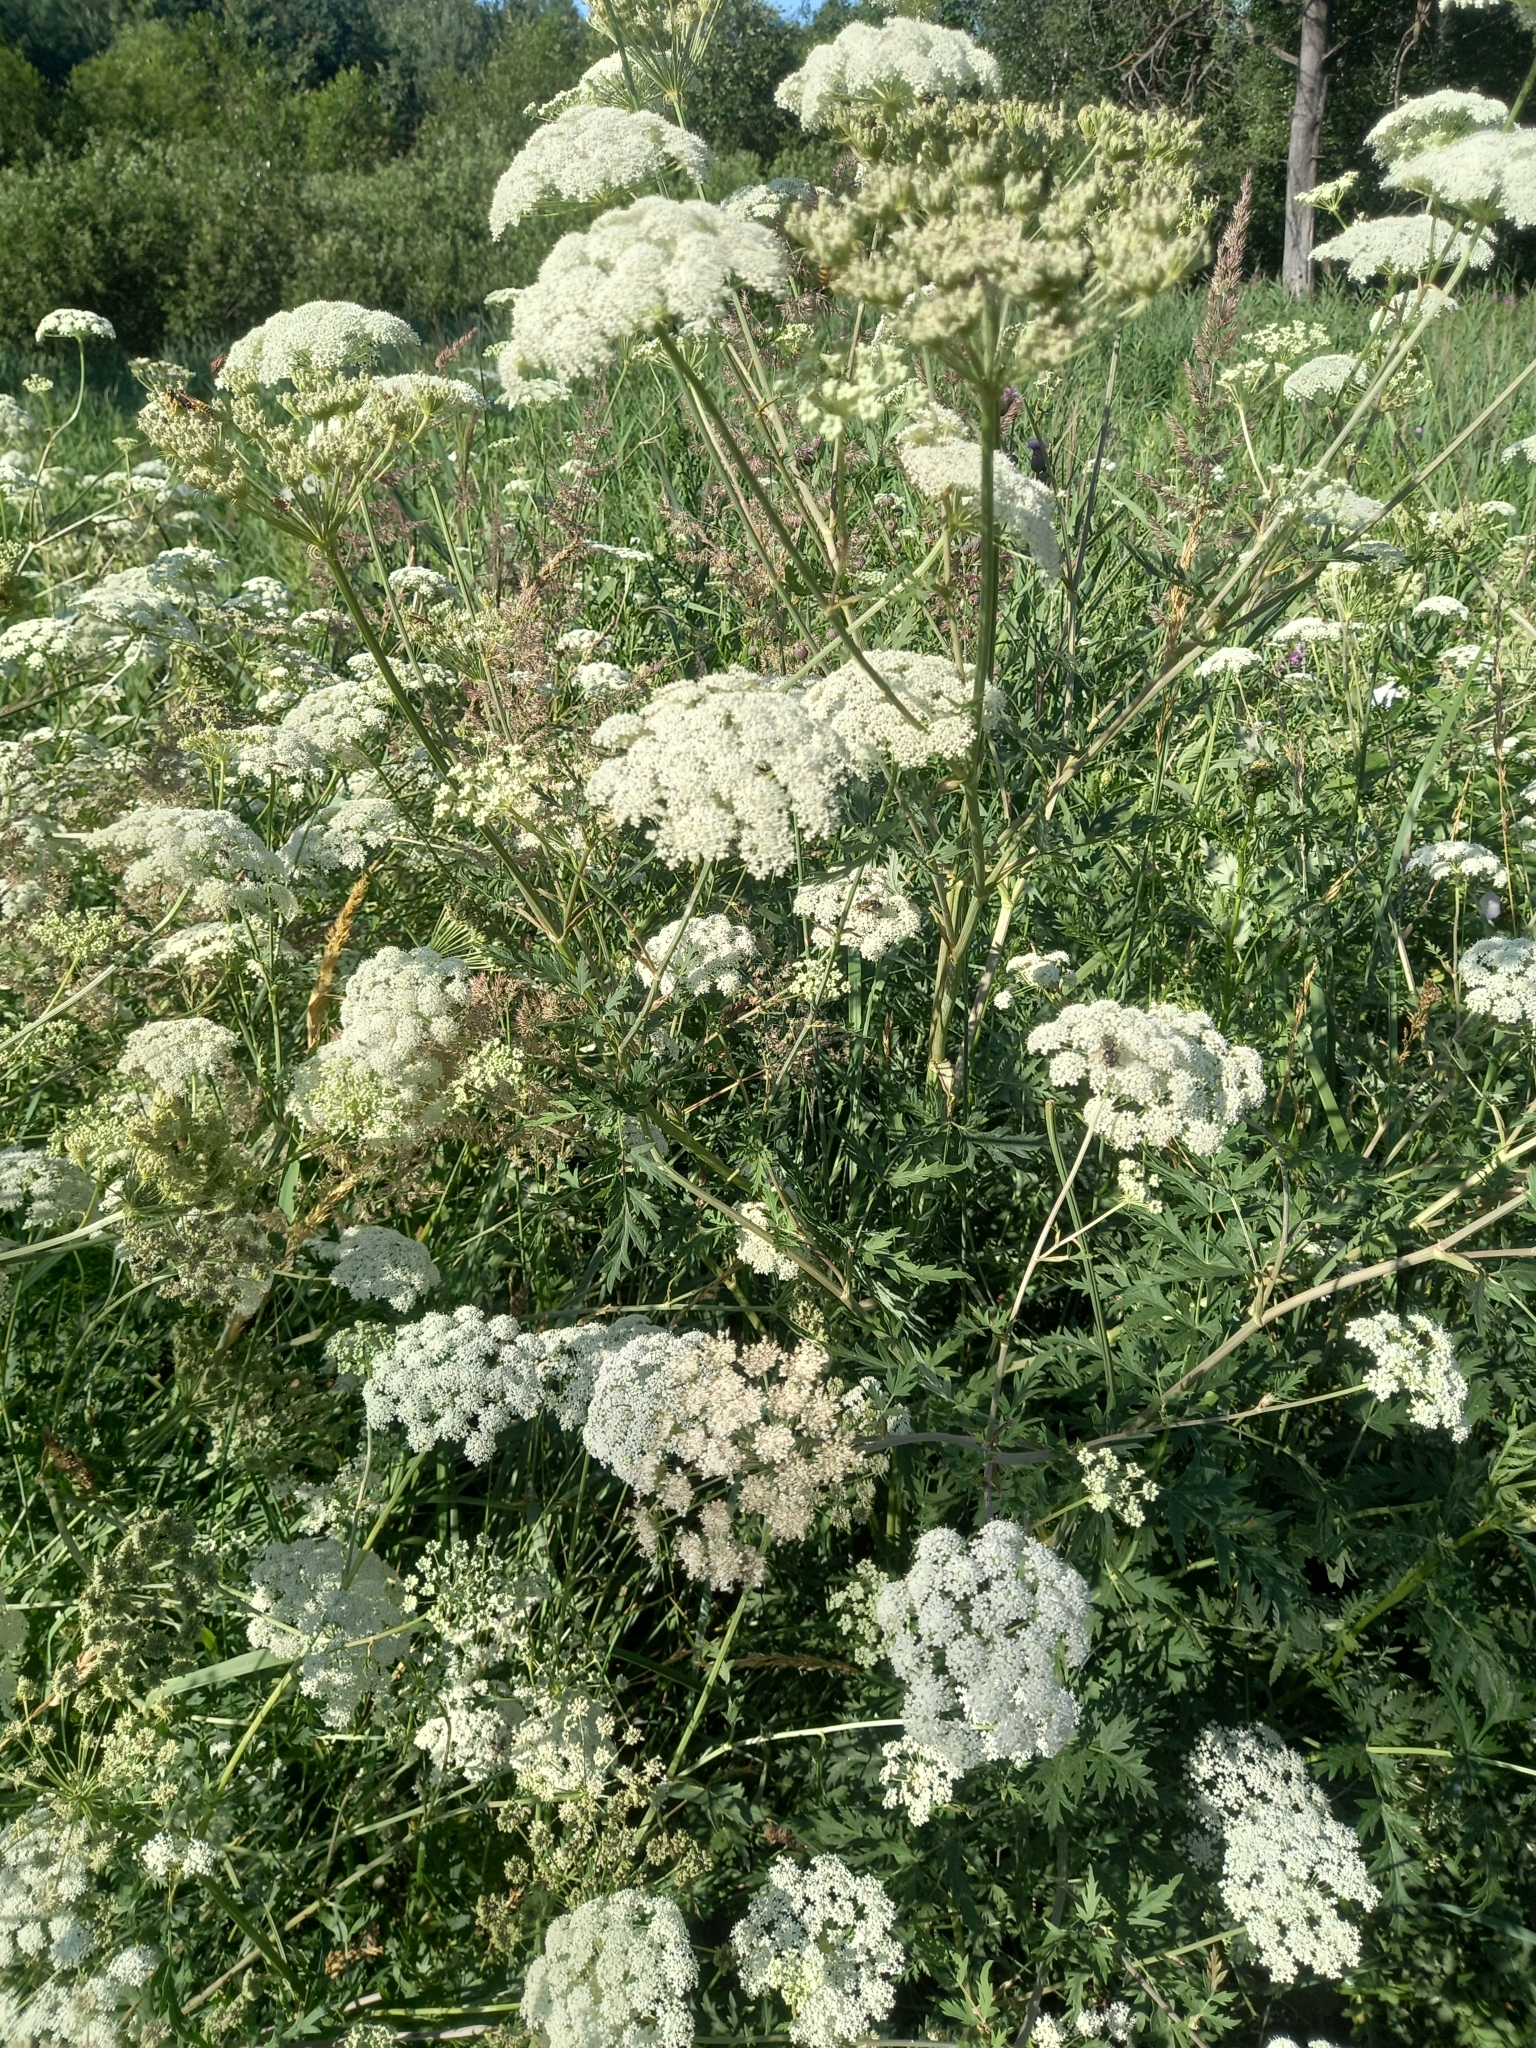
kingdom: Plantae
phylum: Tracheophyta
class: Magnoliopsida
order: Apiales
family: Apiaceae
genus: Seseli
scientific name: Seseli libanotis
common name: Mooncarrot
